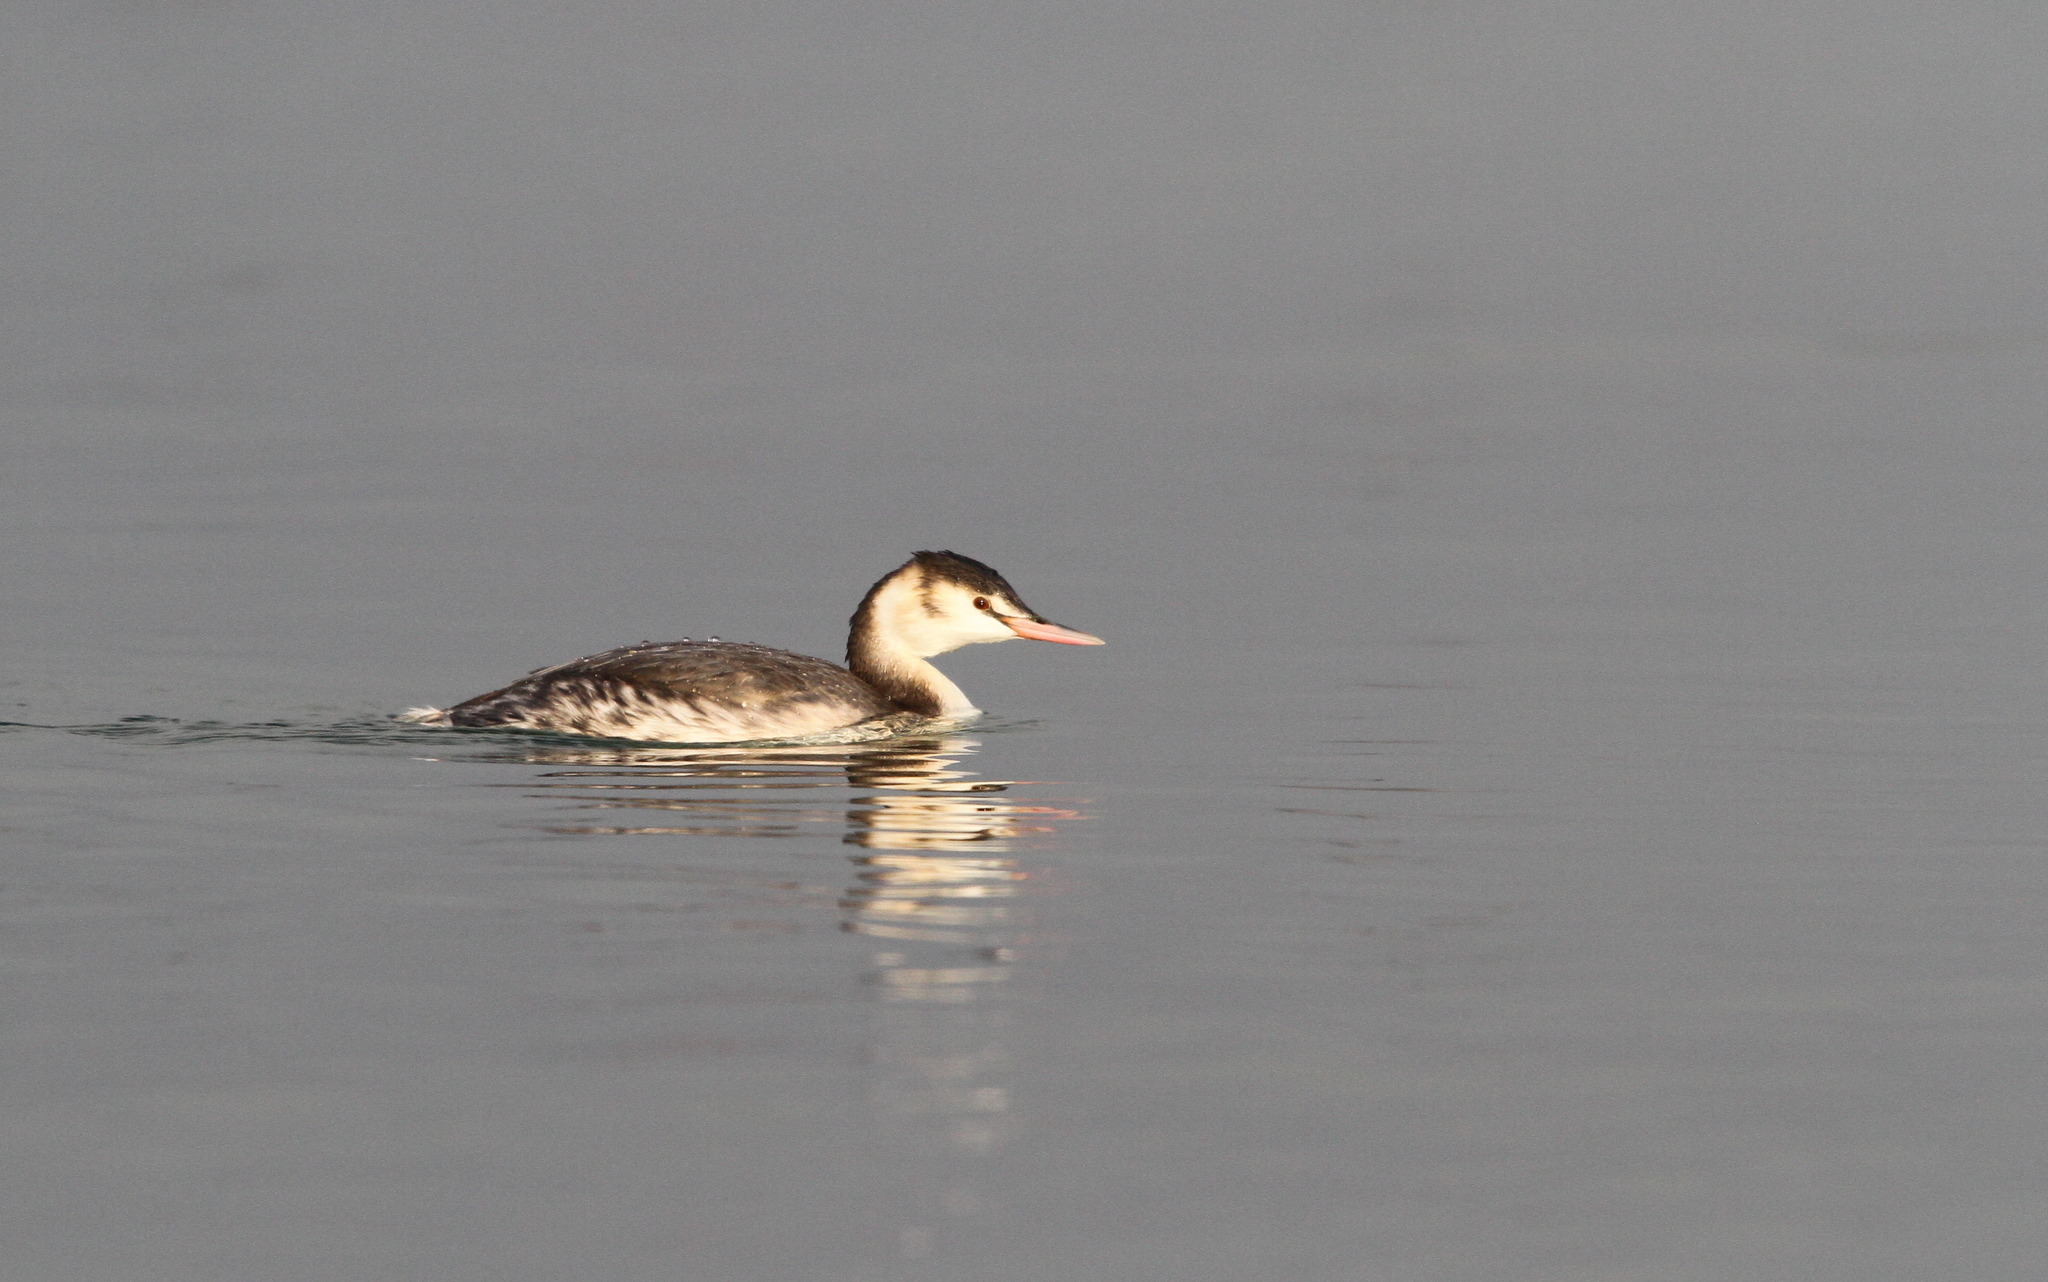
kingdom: Animalia
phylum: Chordata
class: Aves
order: Podicipediformes
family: Podicipedidae
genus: Podiceps
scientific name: Podiceps cristatus
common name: Great crested grebe
